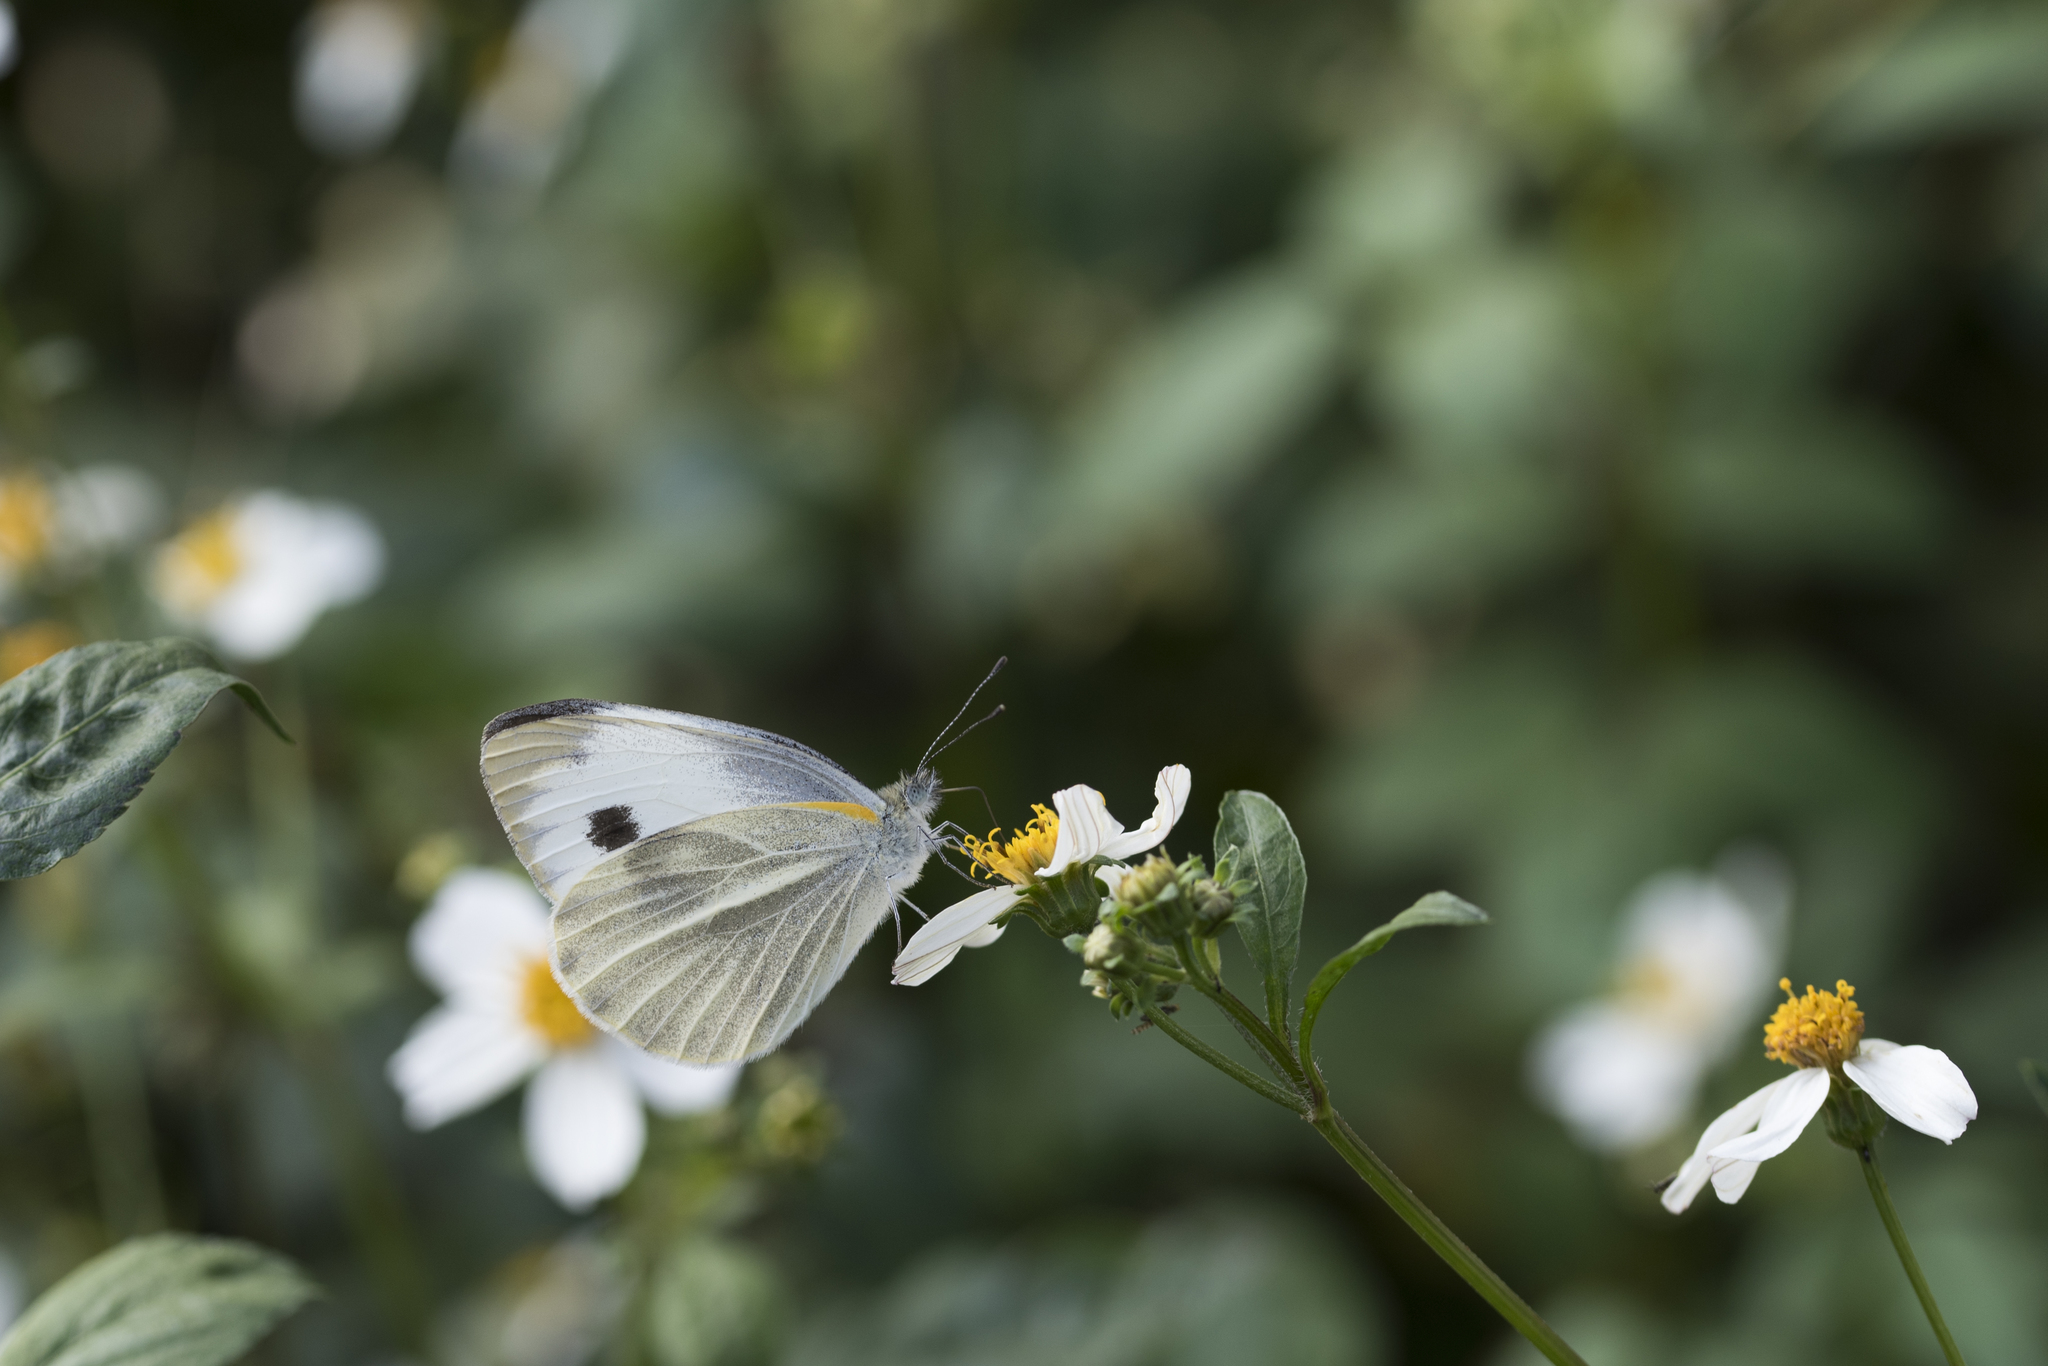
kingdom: Animalia
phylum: Arthropoda
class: Insecta
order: Lepidoptera
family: Pieridae
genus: Pieris
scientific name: Pieris canidia
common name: Indian cabbage white
